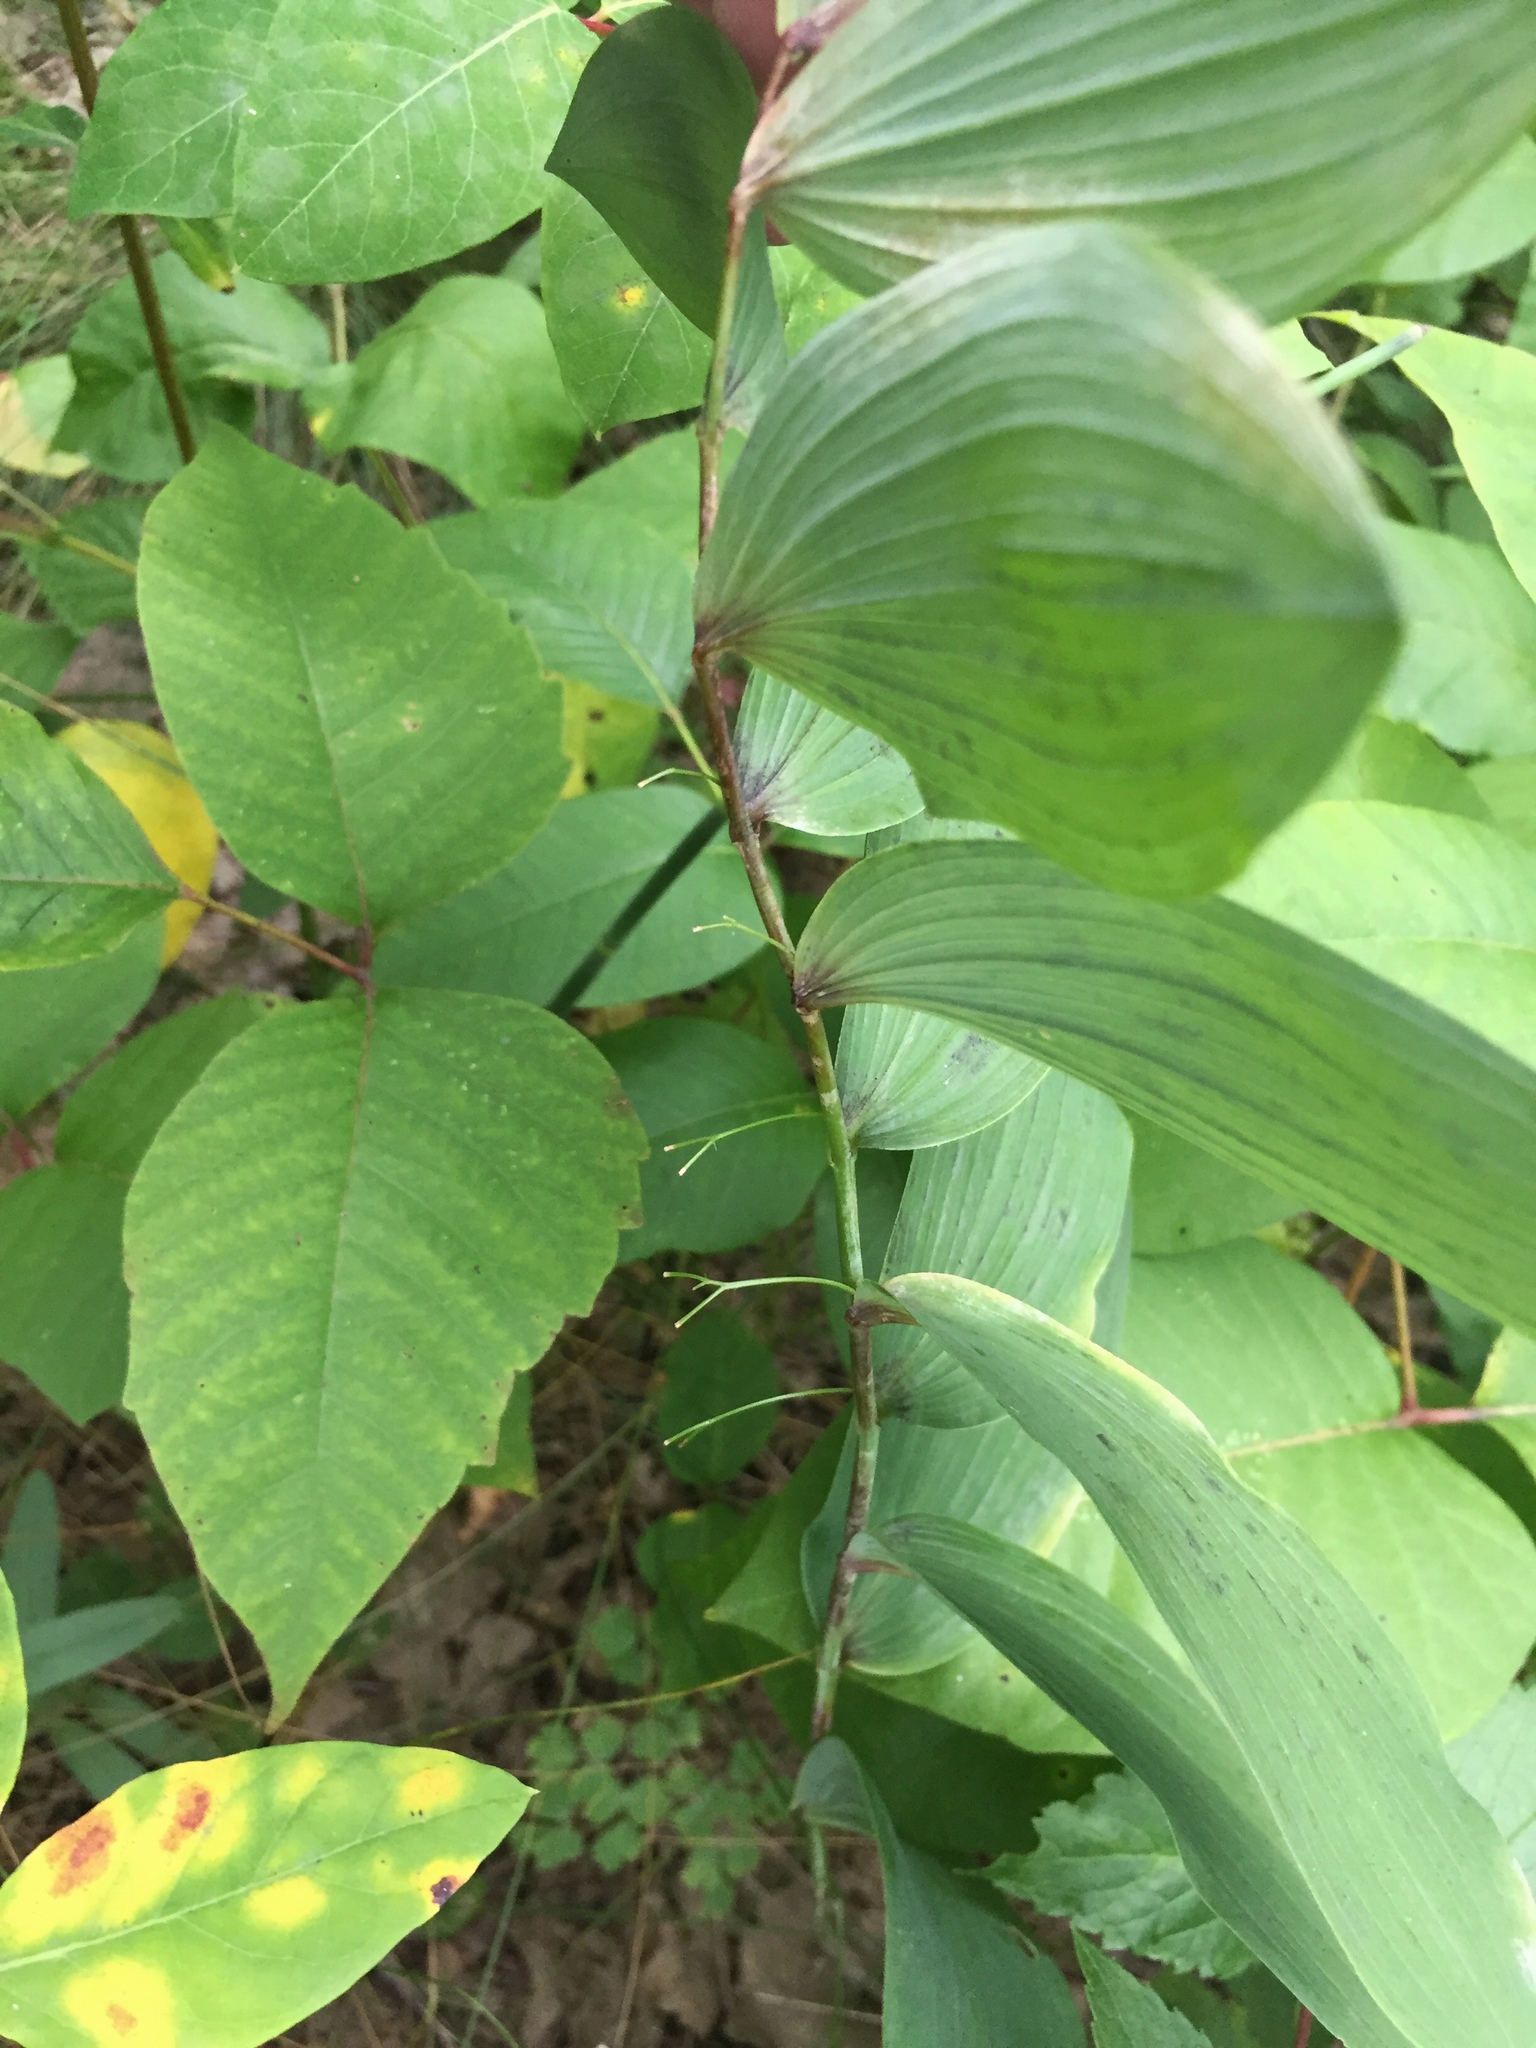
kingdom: Plantae
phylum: Tracheophyta
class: Liliopsida
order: Asparagales
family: Asparagaceae
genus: Polygonatum
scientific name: Polygonatum biflorum
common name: American solomon's-seal
